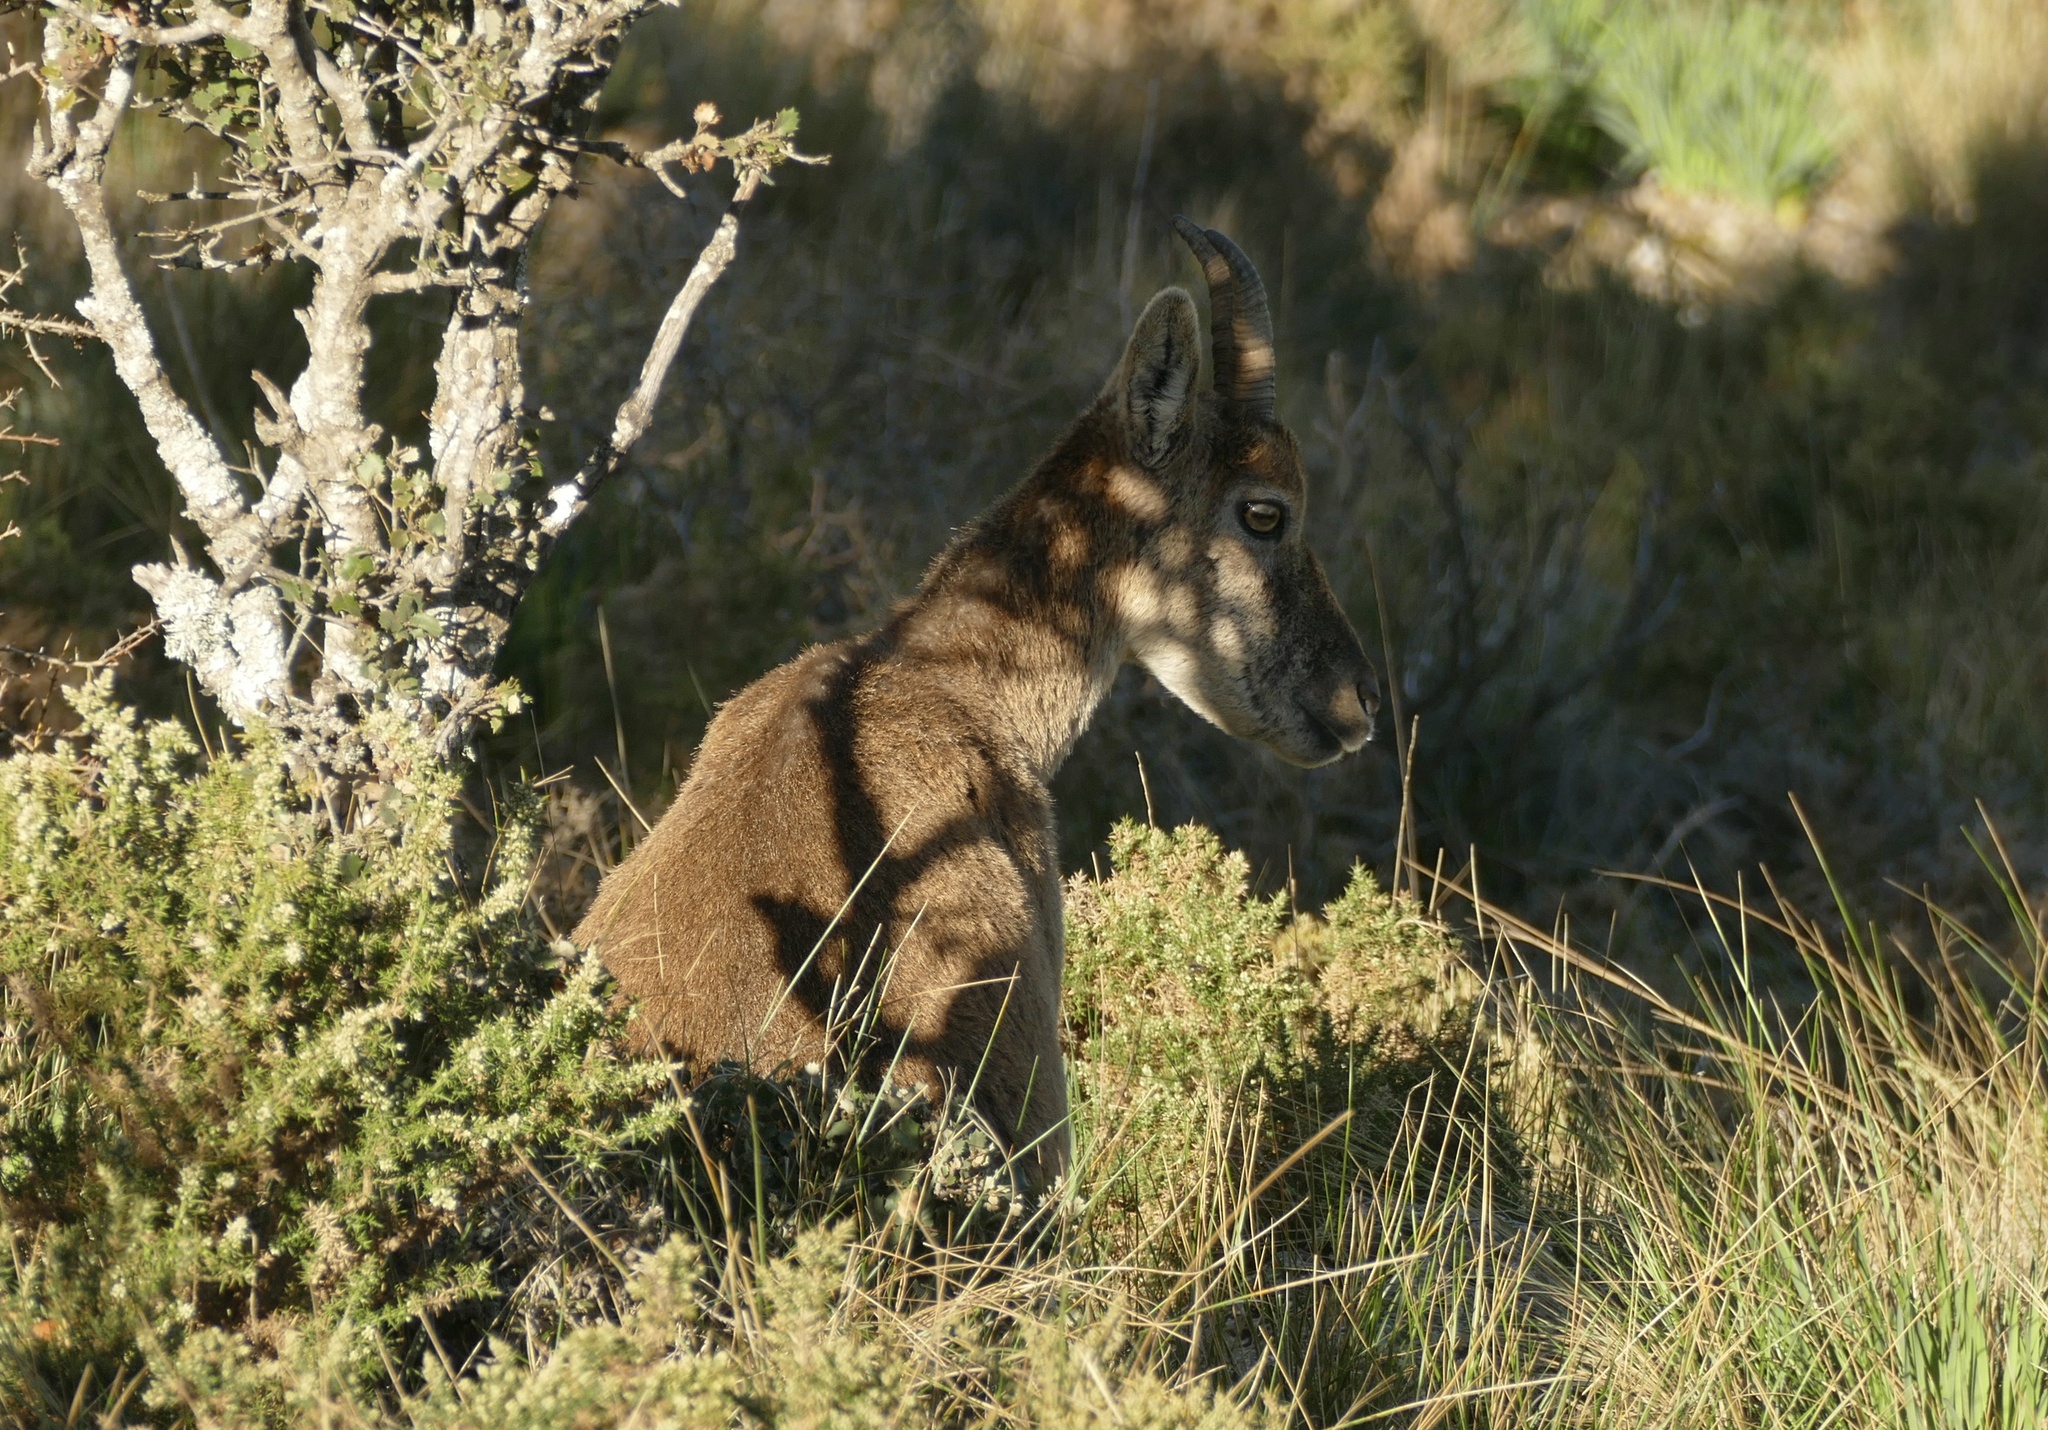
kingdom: Animalia
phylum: Chordata
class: Mammalia
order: Artiodactyla
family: Bovidae
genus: Capra
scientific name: Capra pyrenaica
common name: Spanish ibex
